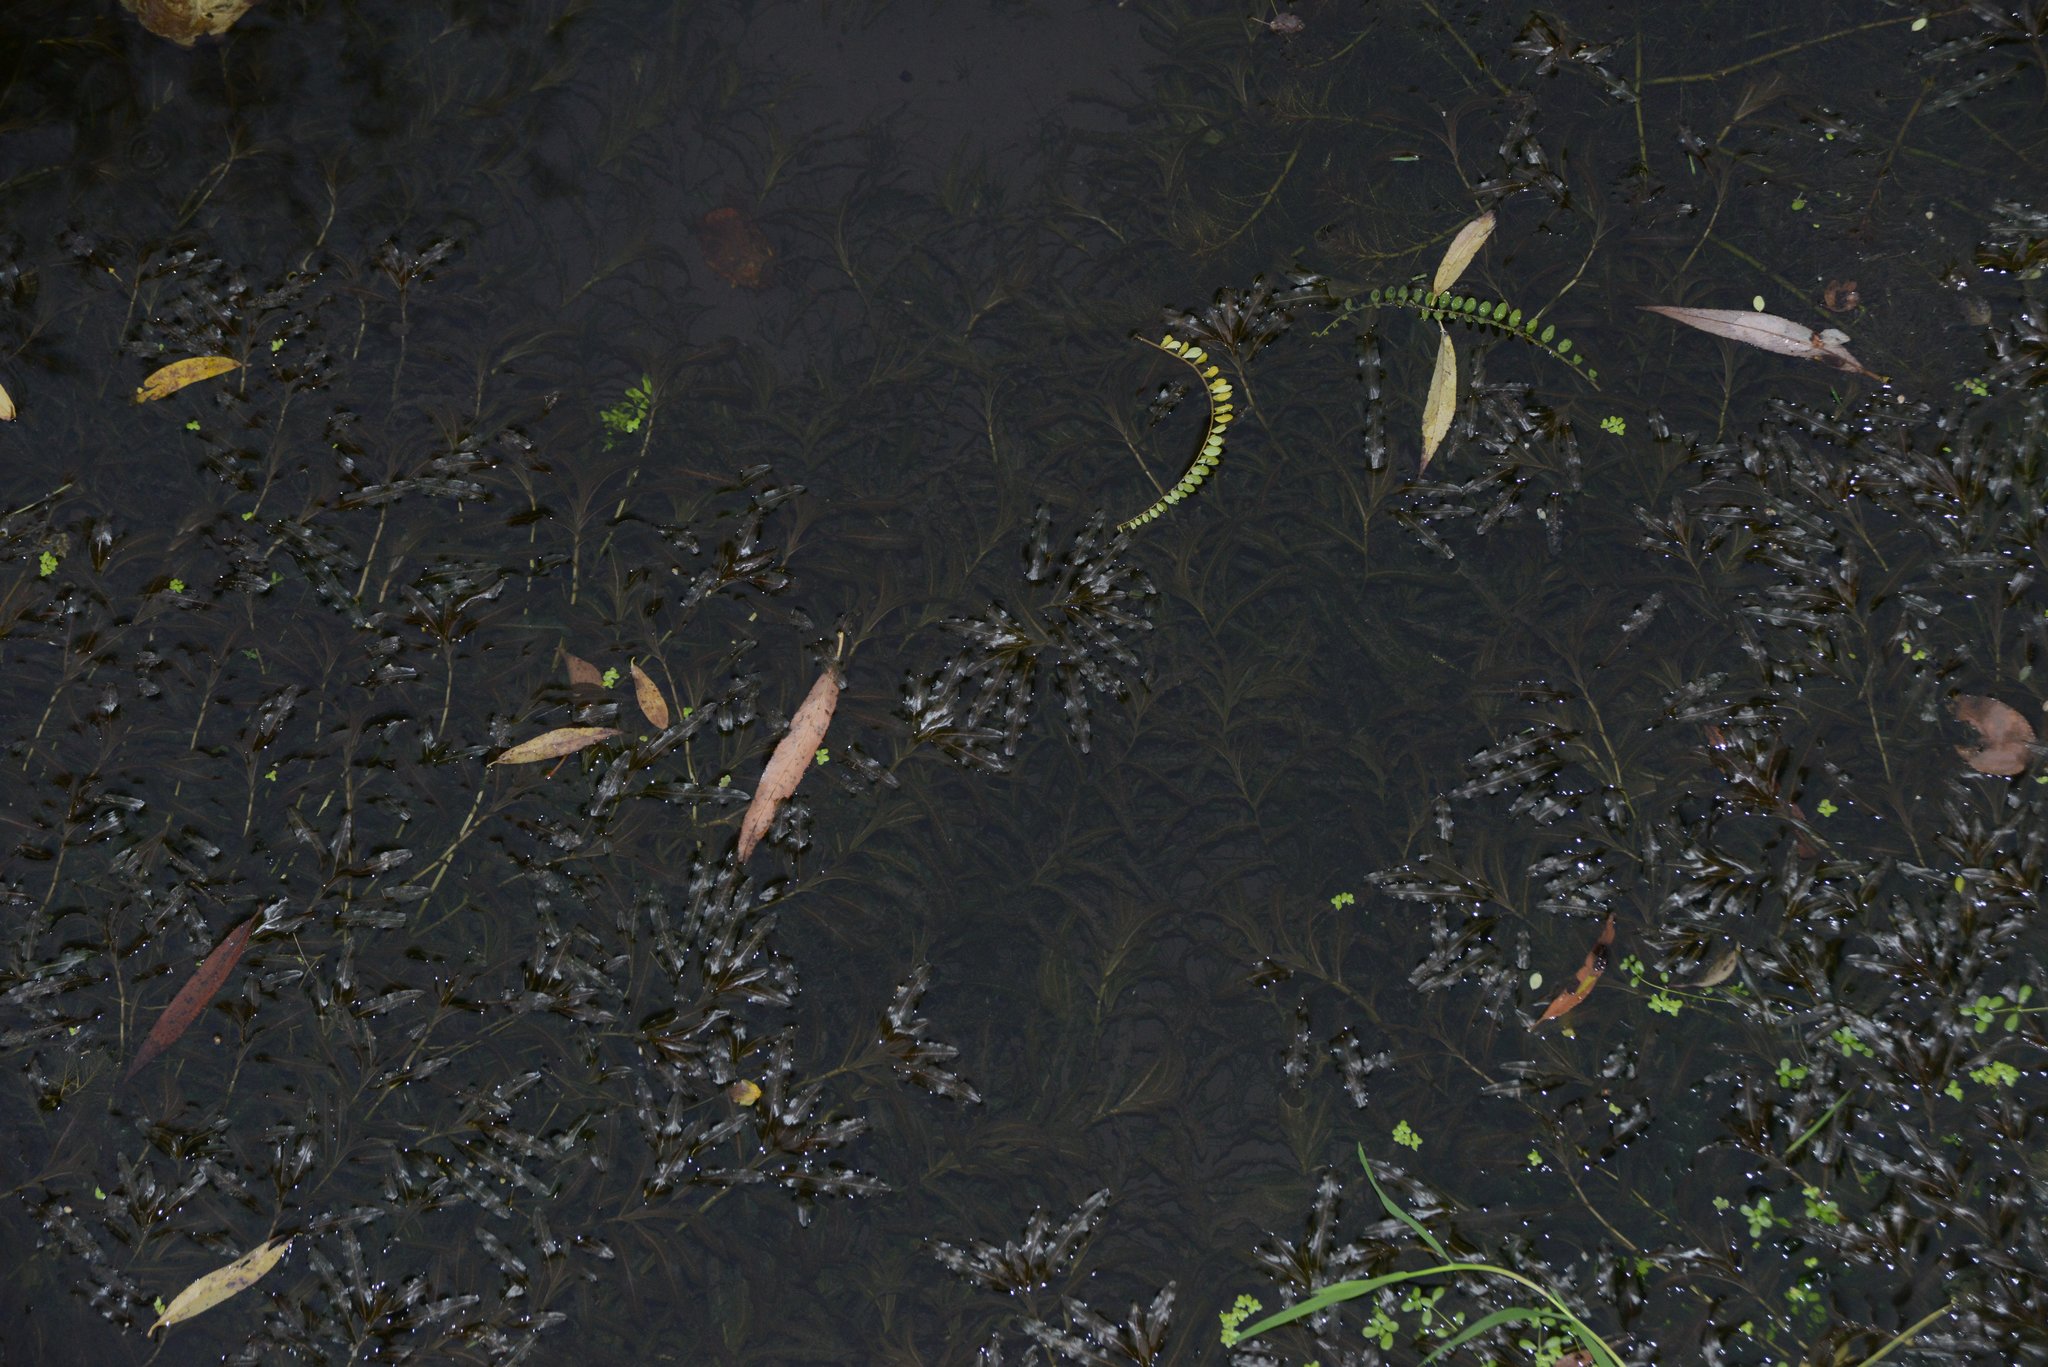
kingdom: Plantae
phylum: Tracheophyta
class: Liliopsida
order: Alismatales
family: Potamogetonaceae
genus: Potamogeton
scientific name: Potamogeton crispus
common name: Curled pondweed
